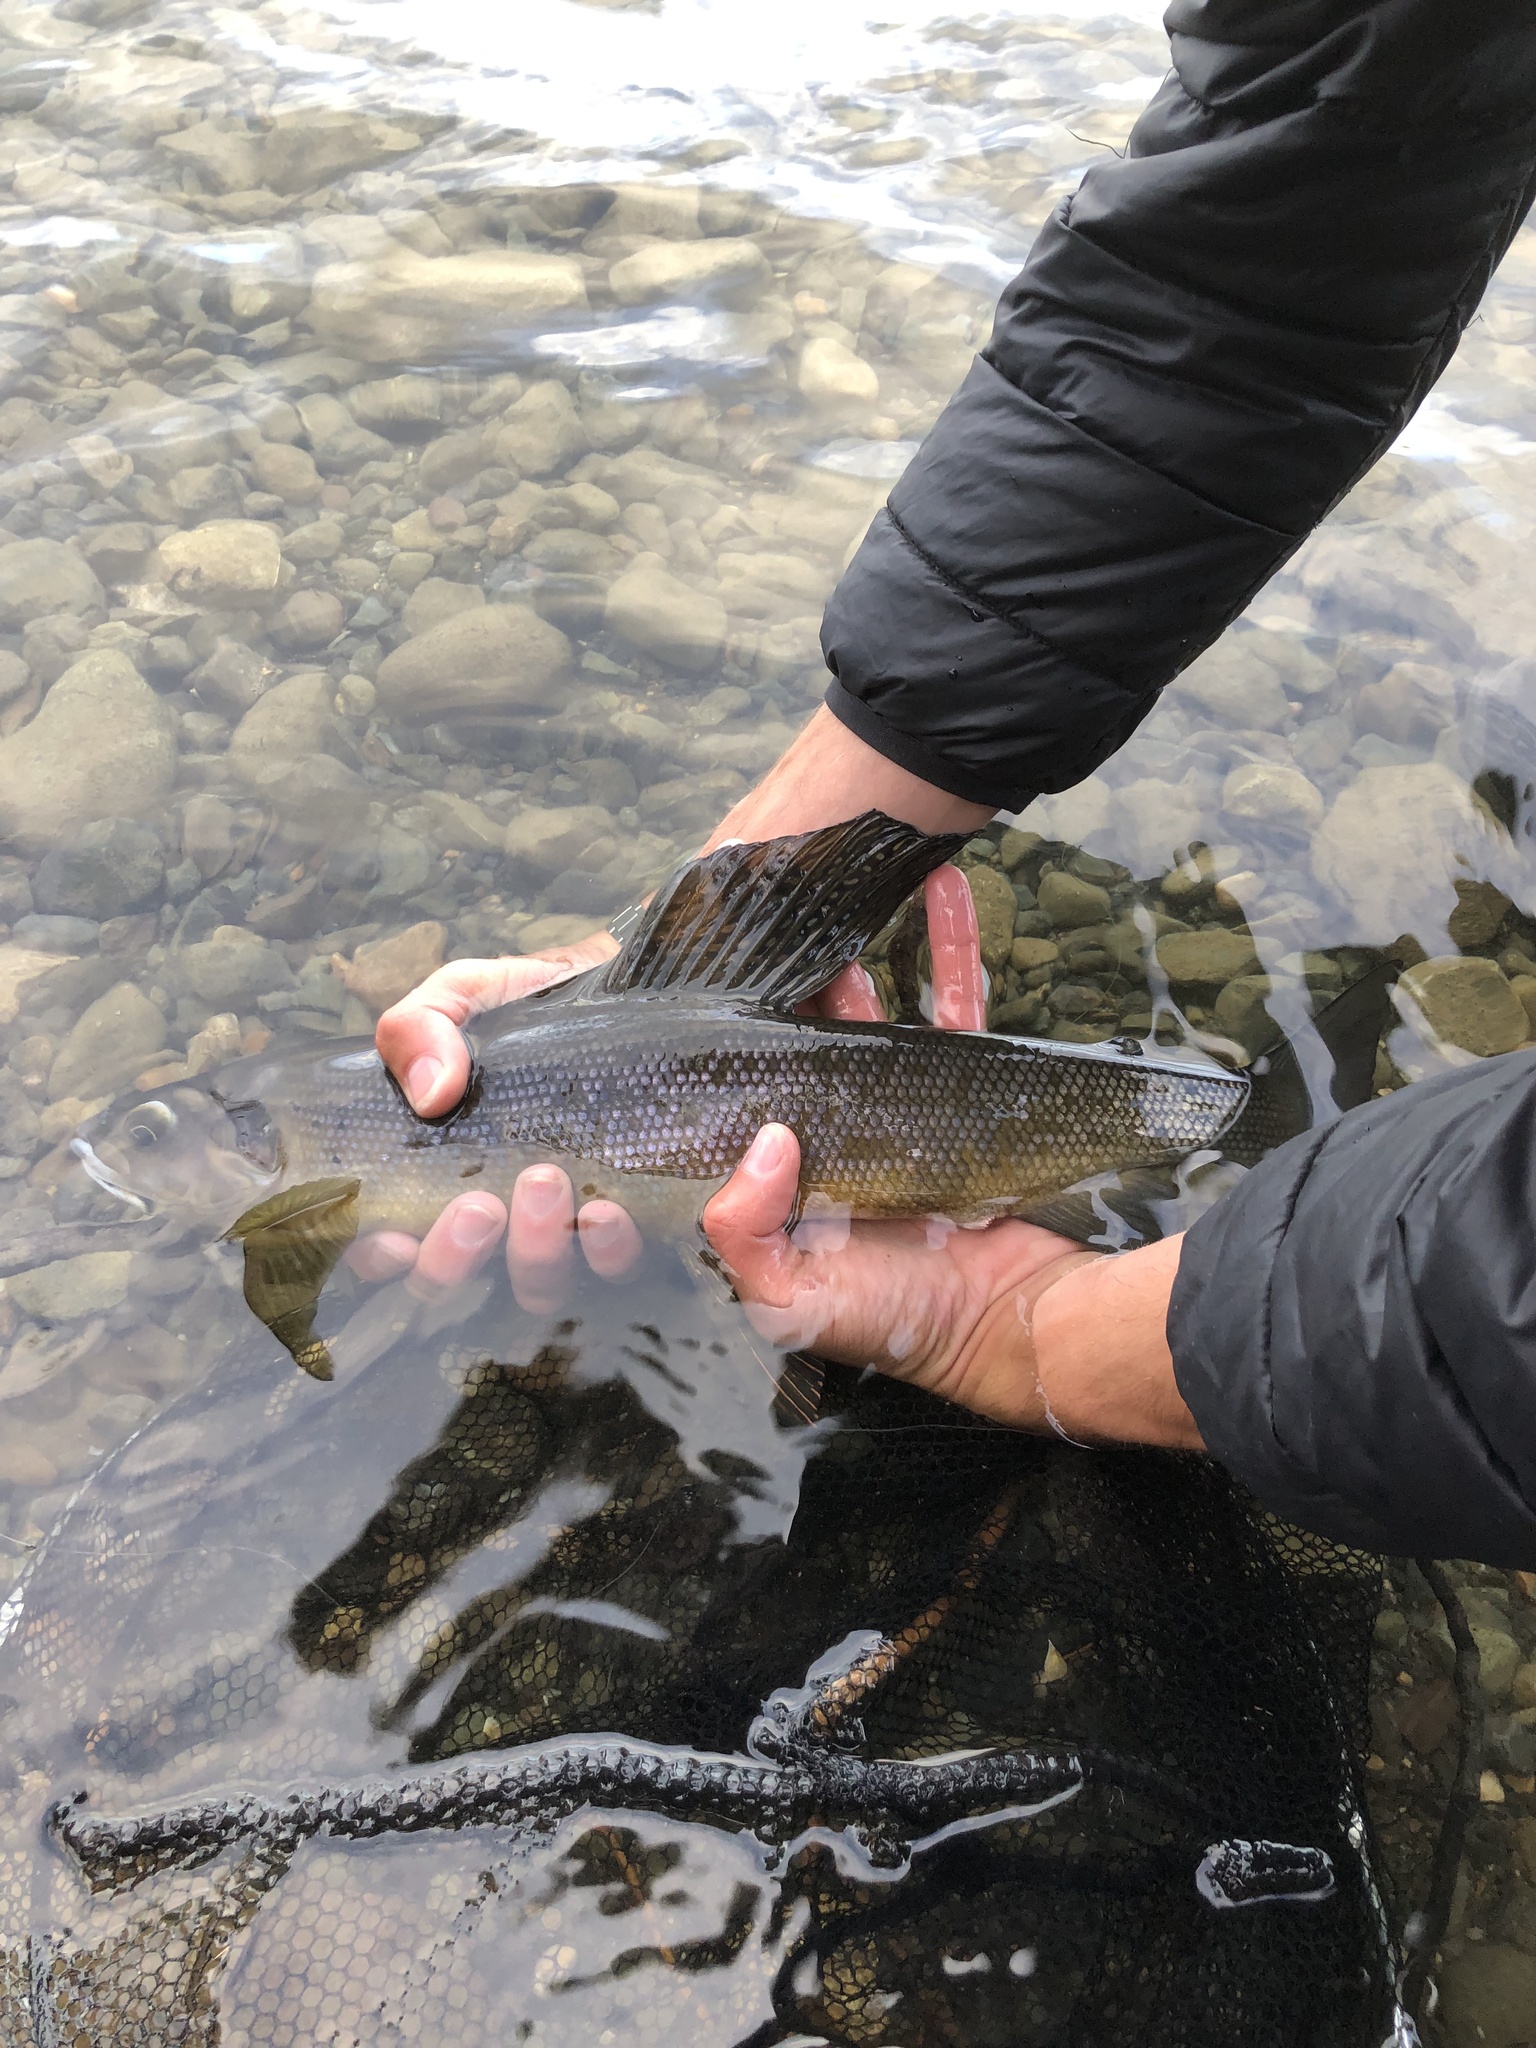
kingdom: Animalia
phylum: Chordata
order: Salmoniformes
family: Salmonidae
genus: Thymallus
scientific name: Thymallus arcticus
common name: Arctic grayling
